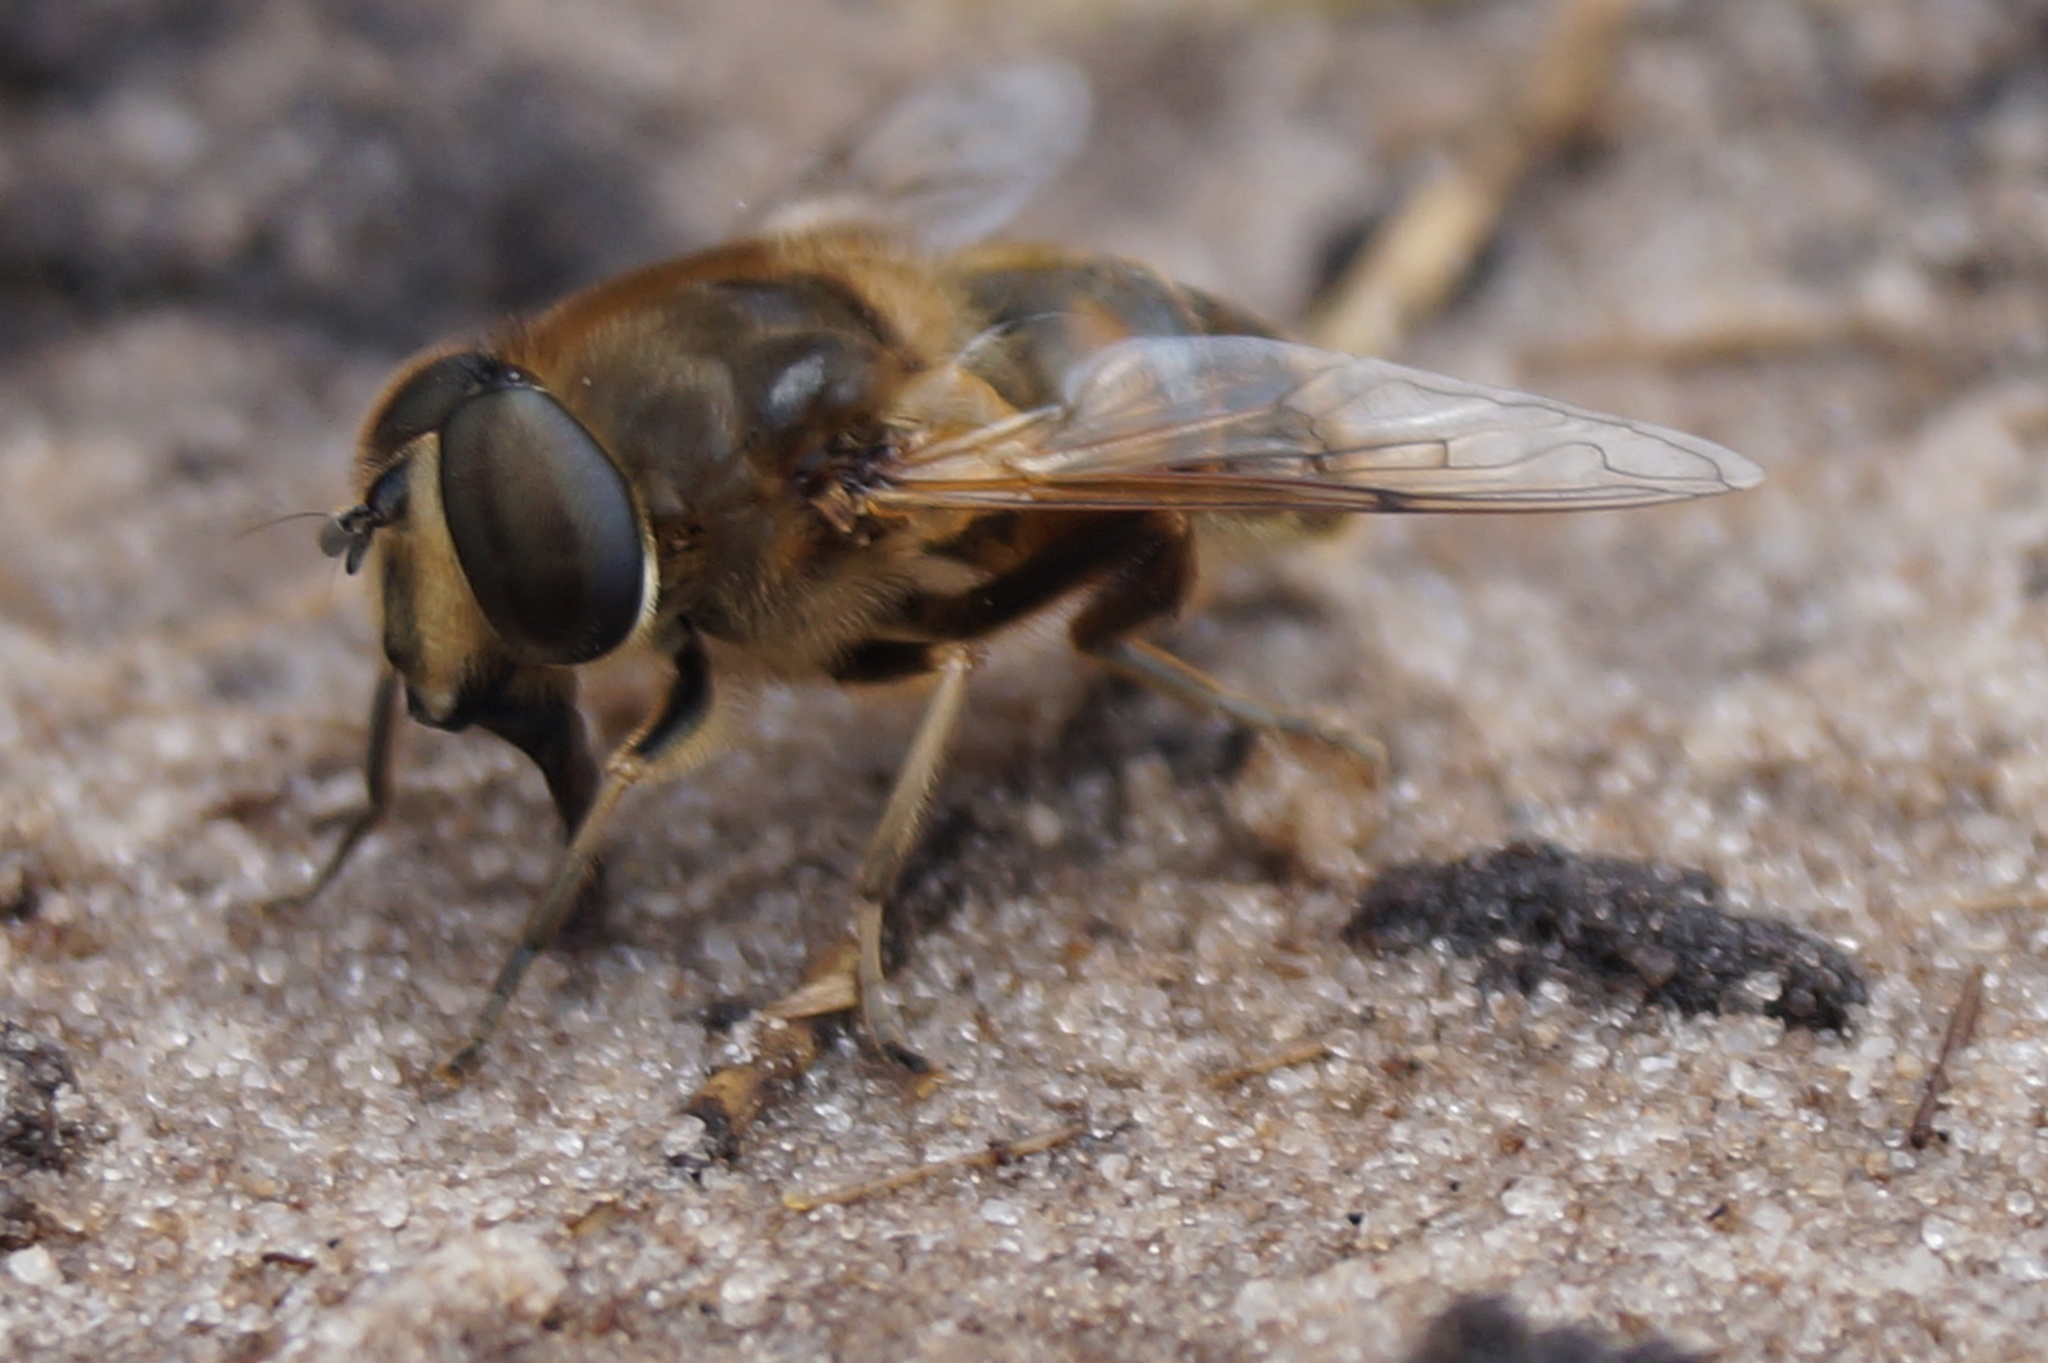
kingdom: Animalia
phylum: Arthropoda
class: Insecta
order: Diptera
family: Syrphidae
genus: Eristalis
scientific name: Eristalis tenax
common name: Drone fly
